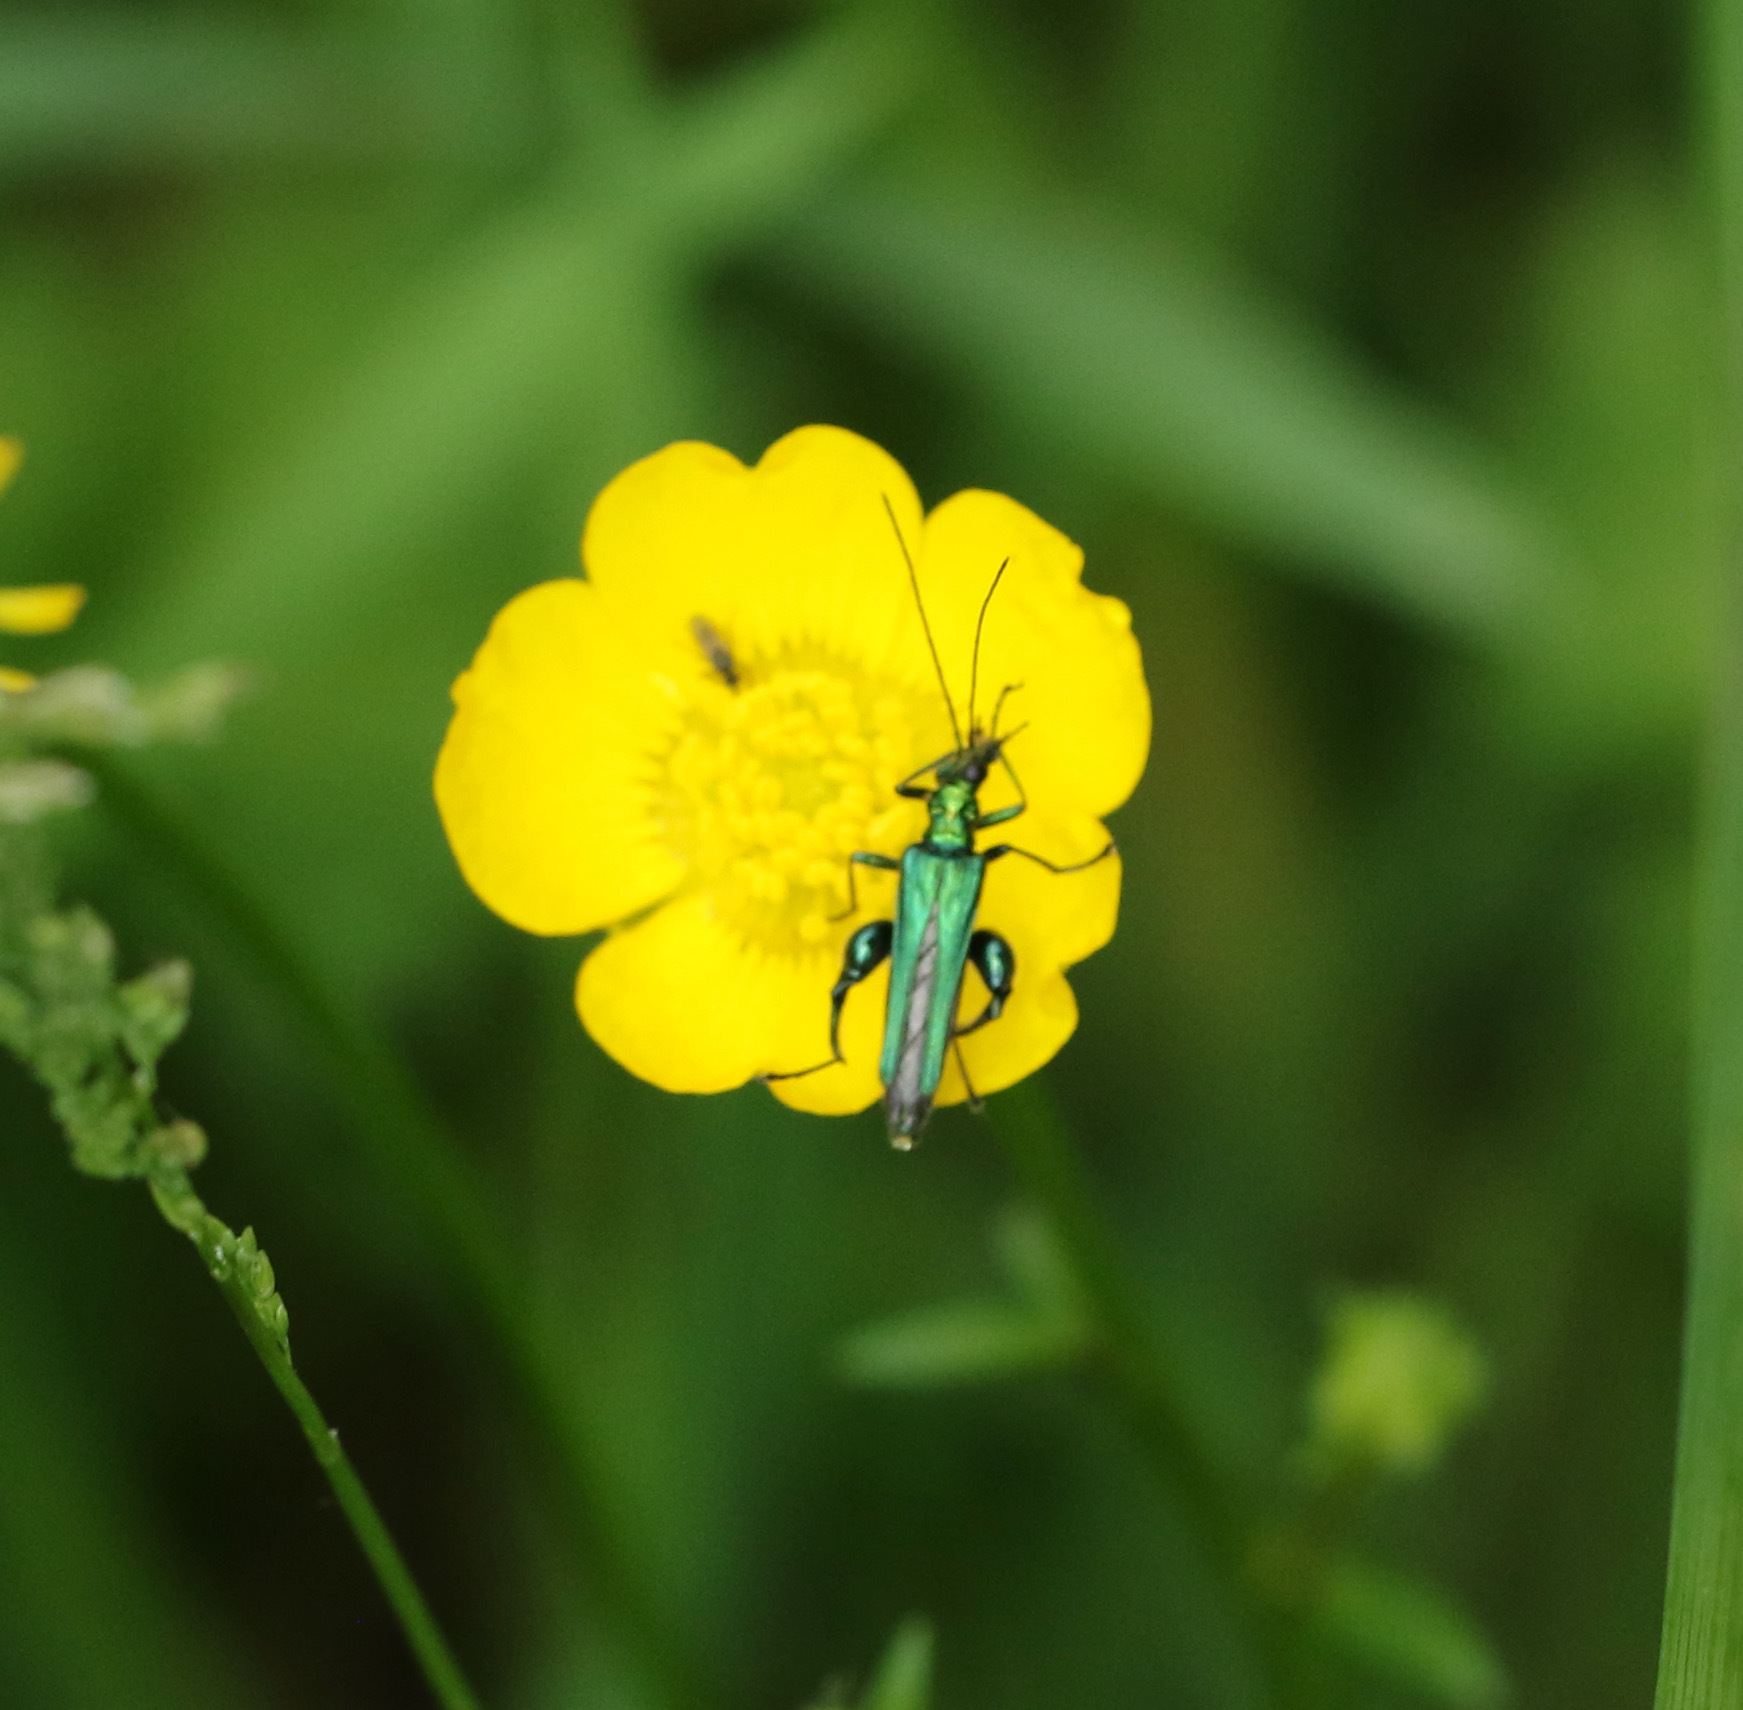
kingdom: Animalia
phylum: Arthropoda
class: Insecta
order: Coleoptera
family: Oedemeridae
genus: Oedemera
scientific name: Oedemera nobilis
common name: Swollen-thighed beetle
